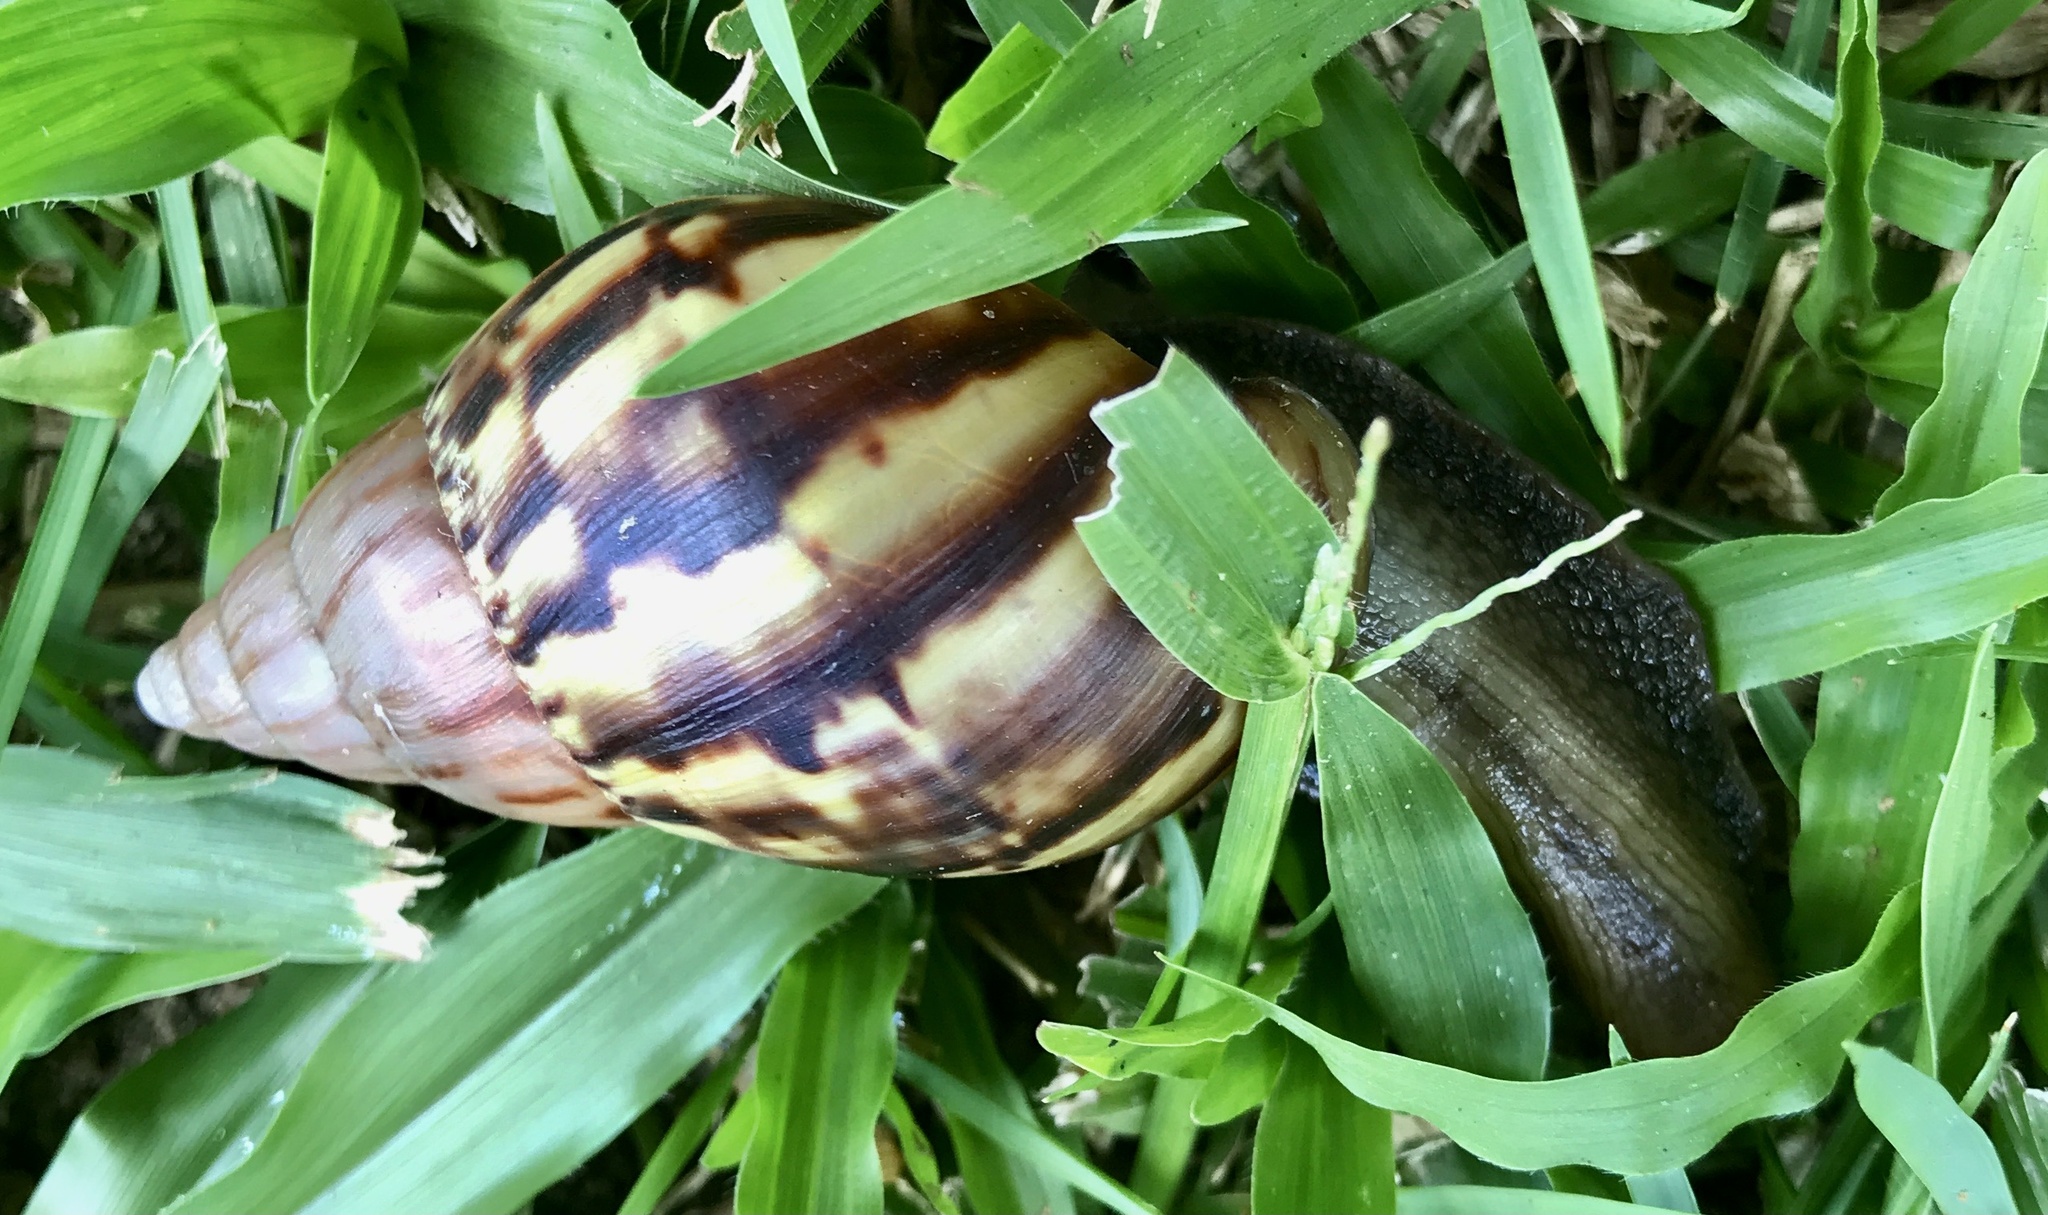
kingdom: Animalia
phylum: Mollusca
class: Gastropoda
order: Stylommatophora
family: Achatinidae
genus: Lissachatina
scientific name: Lissachatina fulica
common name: Giant african snail
